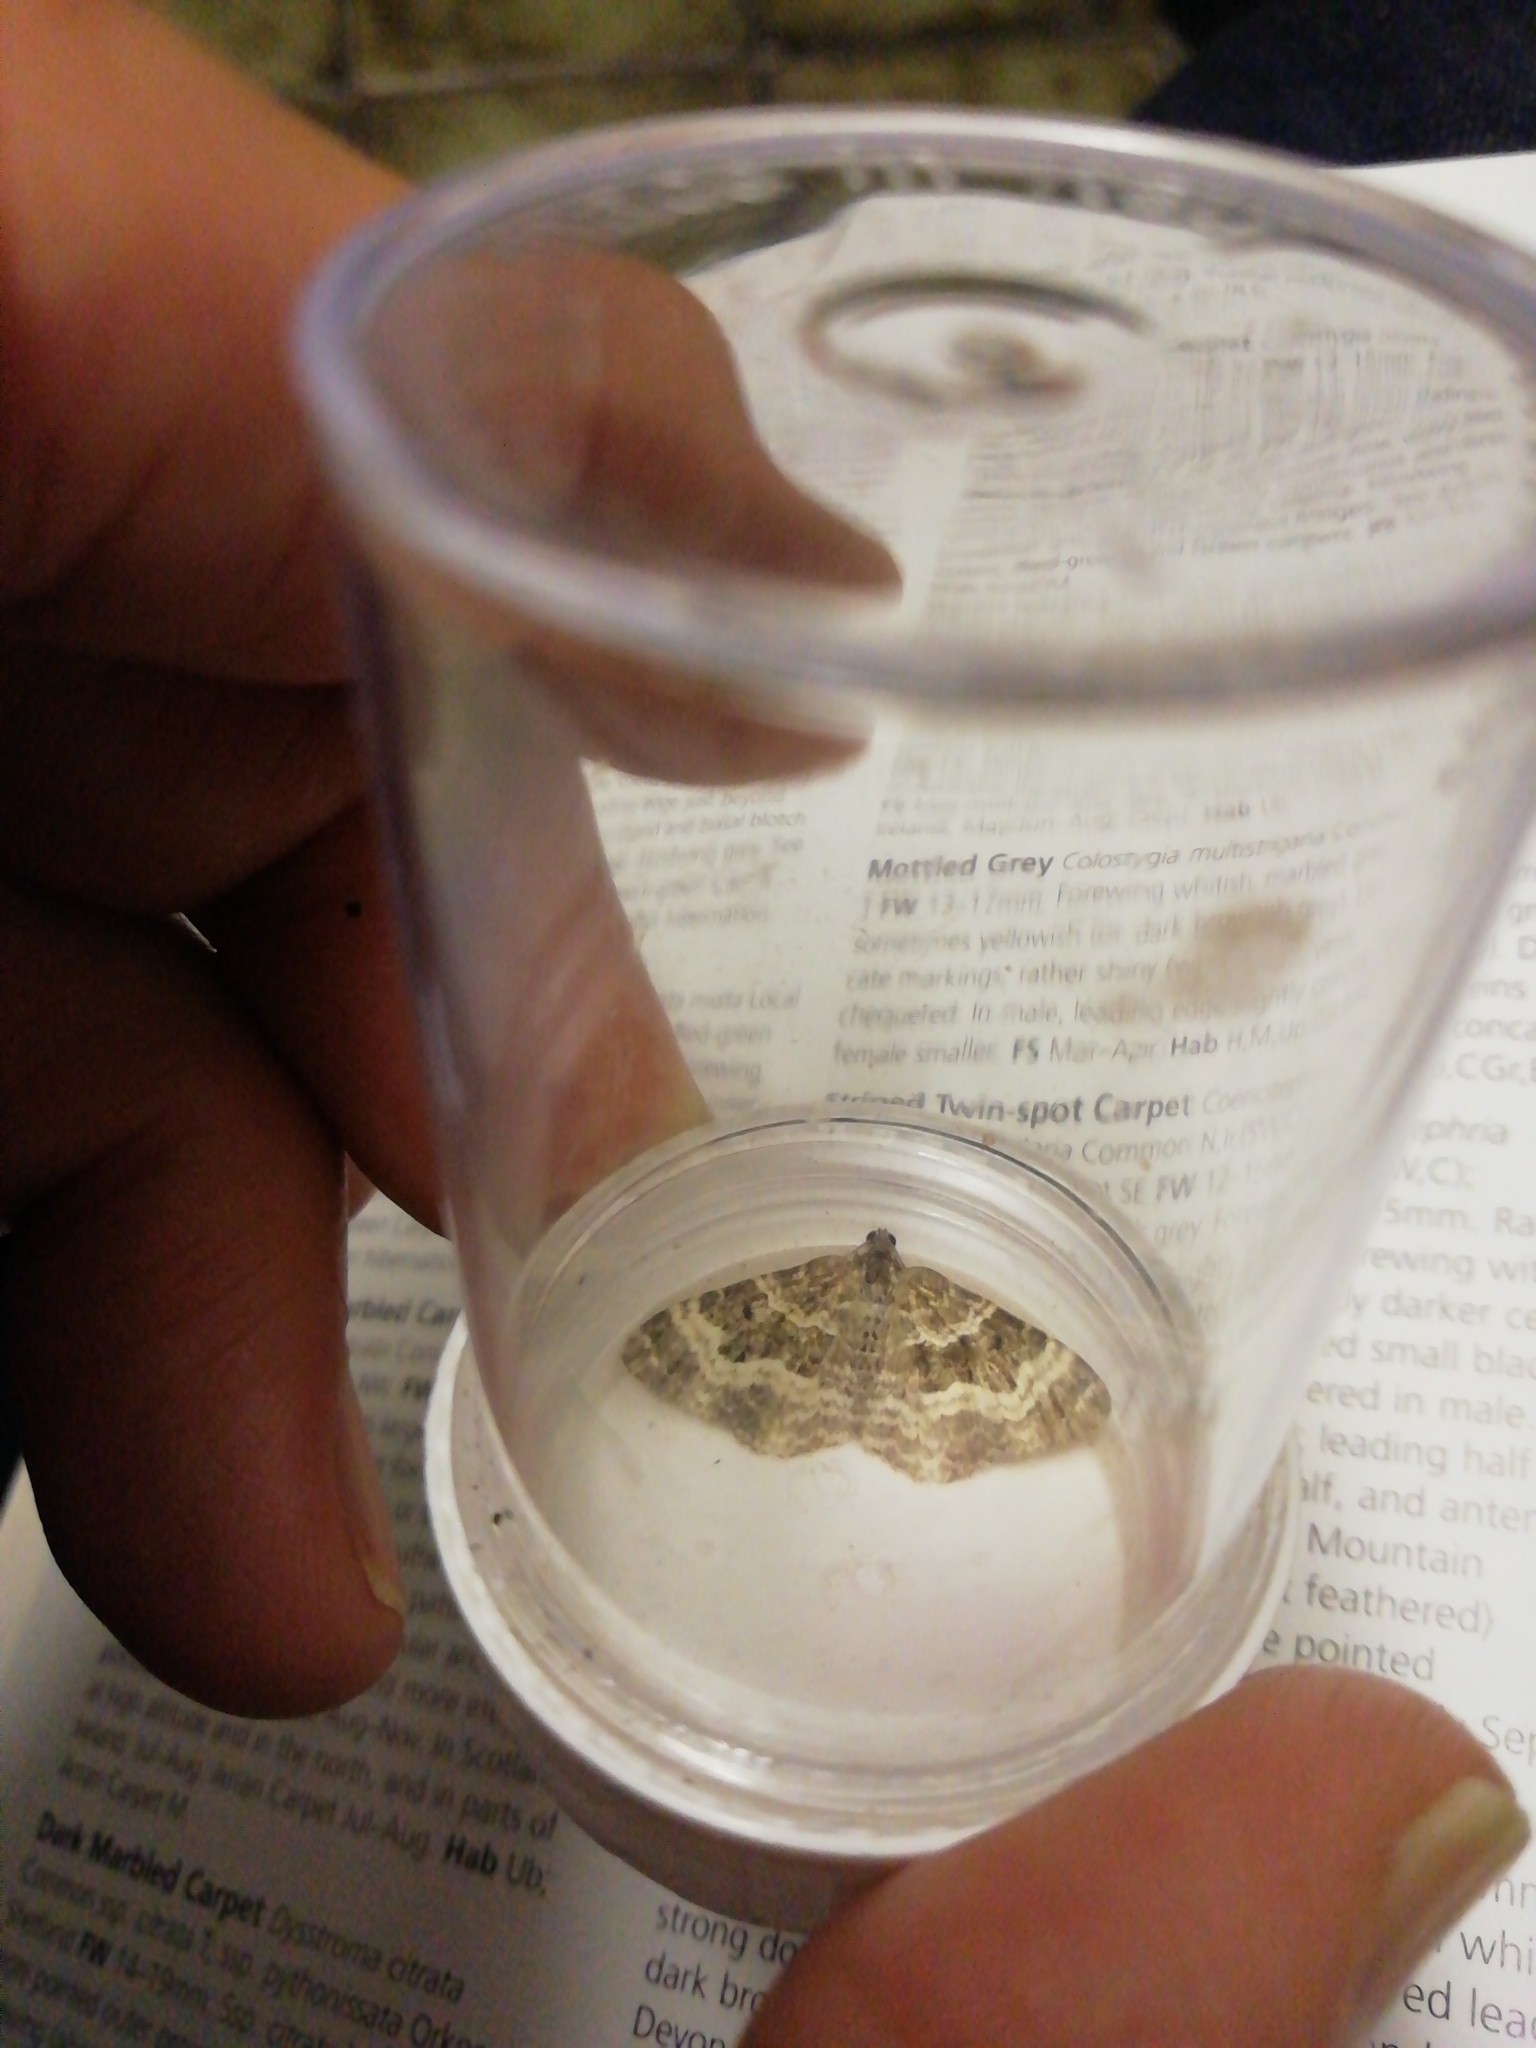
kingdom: Animalia
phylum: Arthropoda
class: Insecta
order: Lepidoptera
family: Geometridae
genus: Epirrhoe
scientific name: Epirrhoe alternata
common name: Common carpet
